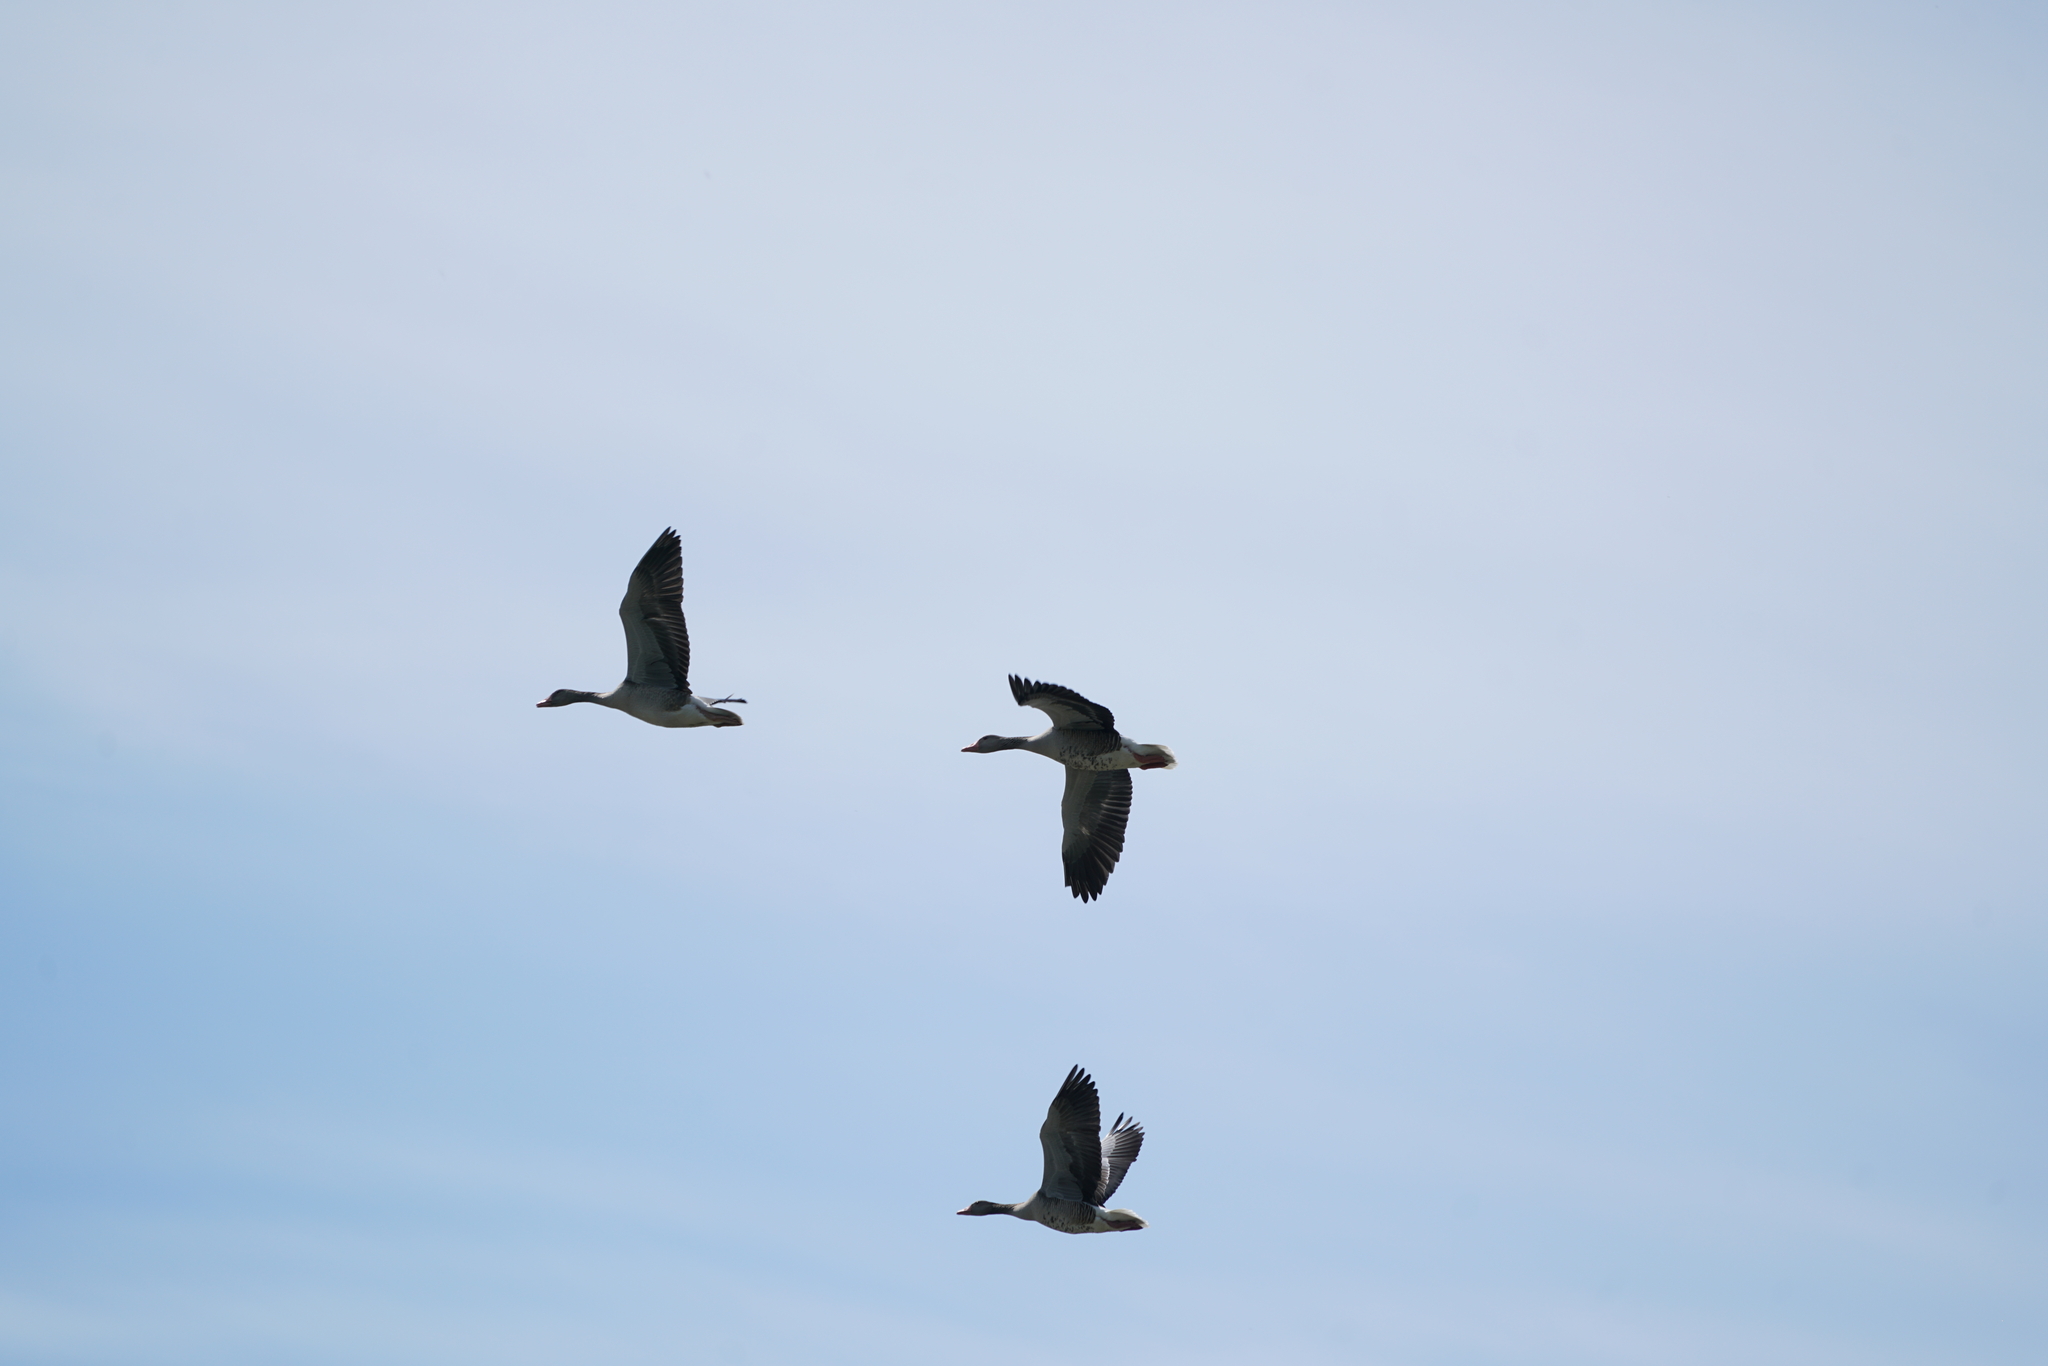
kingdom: Animalia
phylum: Chordata
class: Aves
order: Anseriformes
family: Anatidae
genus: Anser
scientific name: Anser anser
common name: Greylag goose
